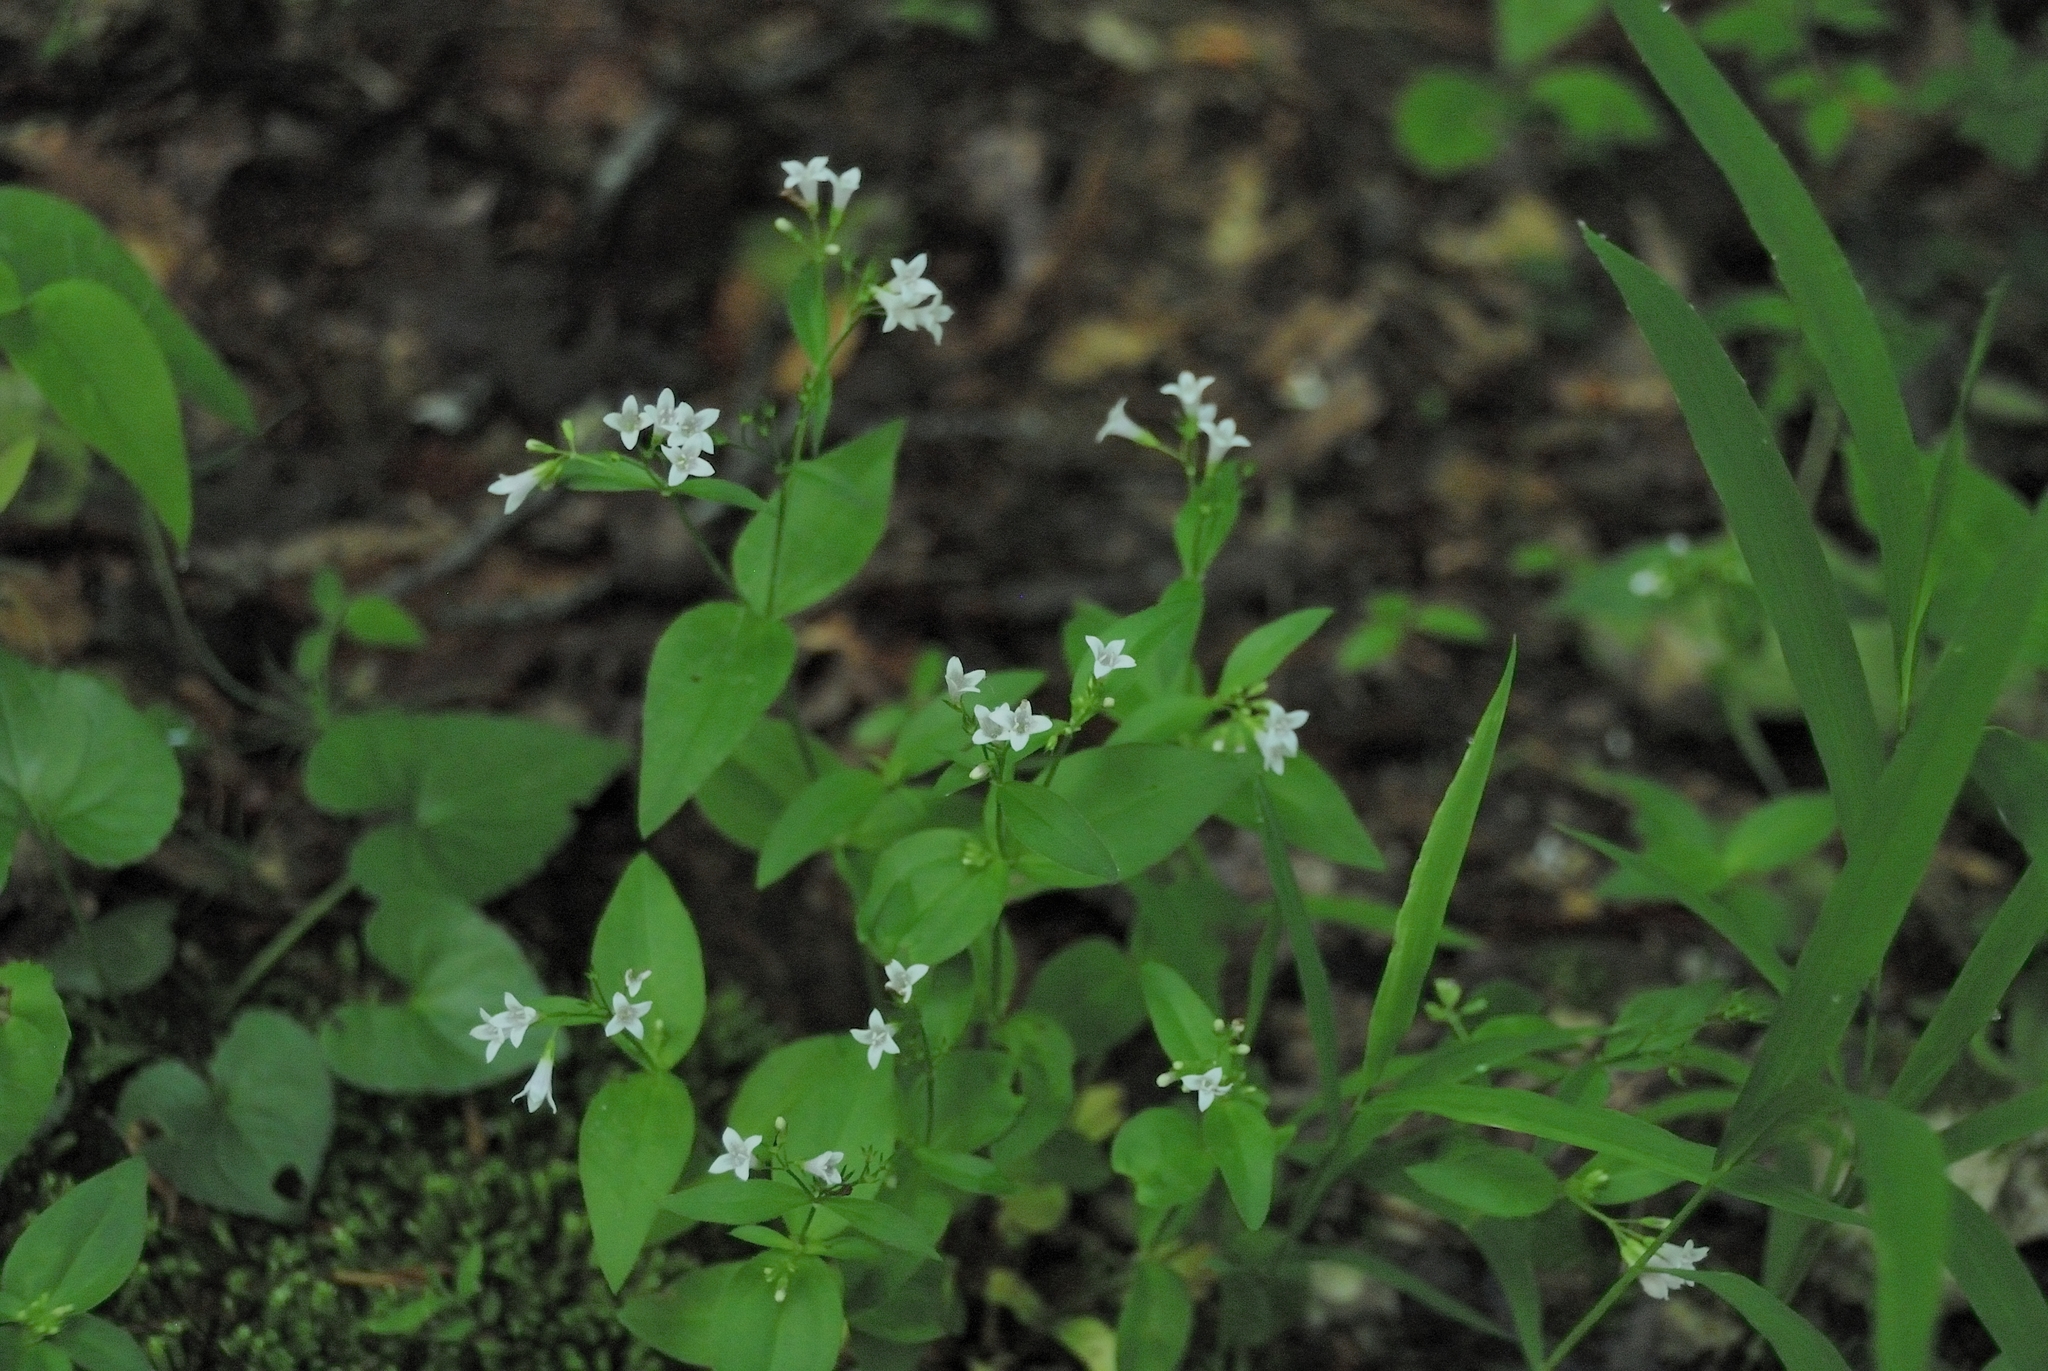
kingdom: Plantae
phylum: Tracheophyta
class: Magnoliopsida
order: Gentianales
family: Rubiaceae
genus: Houstonia
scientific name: Houstonia purpurea
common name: Summer bluet
